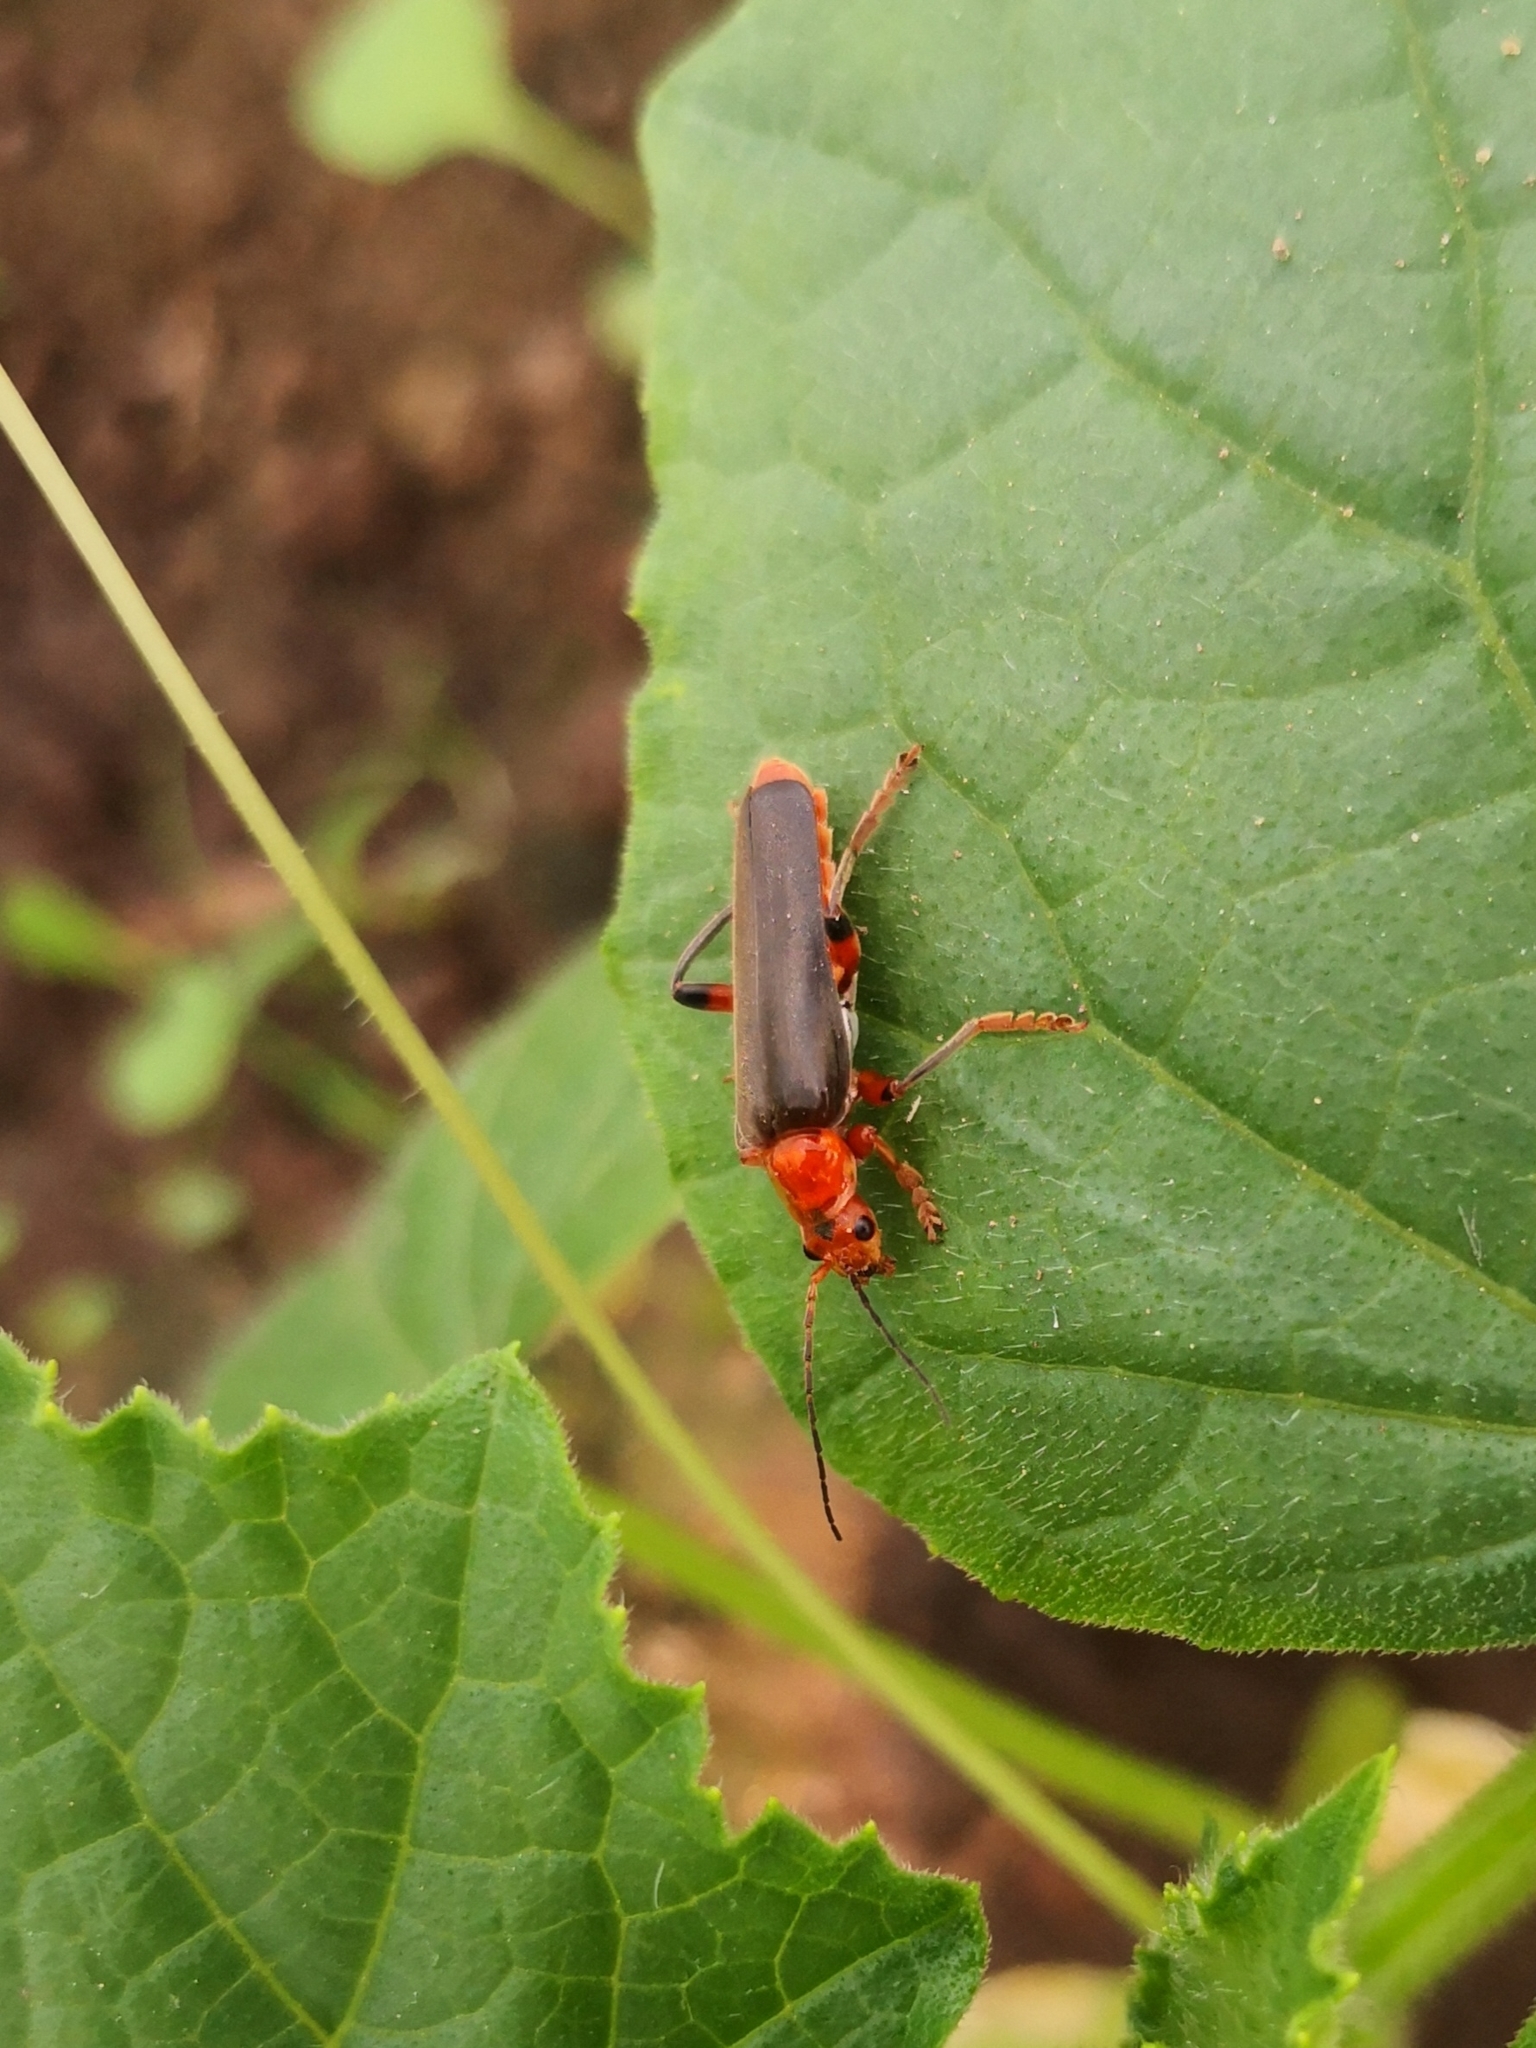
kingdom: Animalia
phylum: Arthropoda
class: Insecta
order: Coleoptera
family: Cantharidae
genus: Cantharis
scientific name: Cantharis livida
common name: Livid soldier beetle
